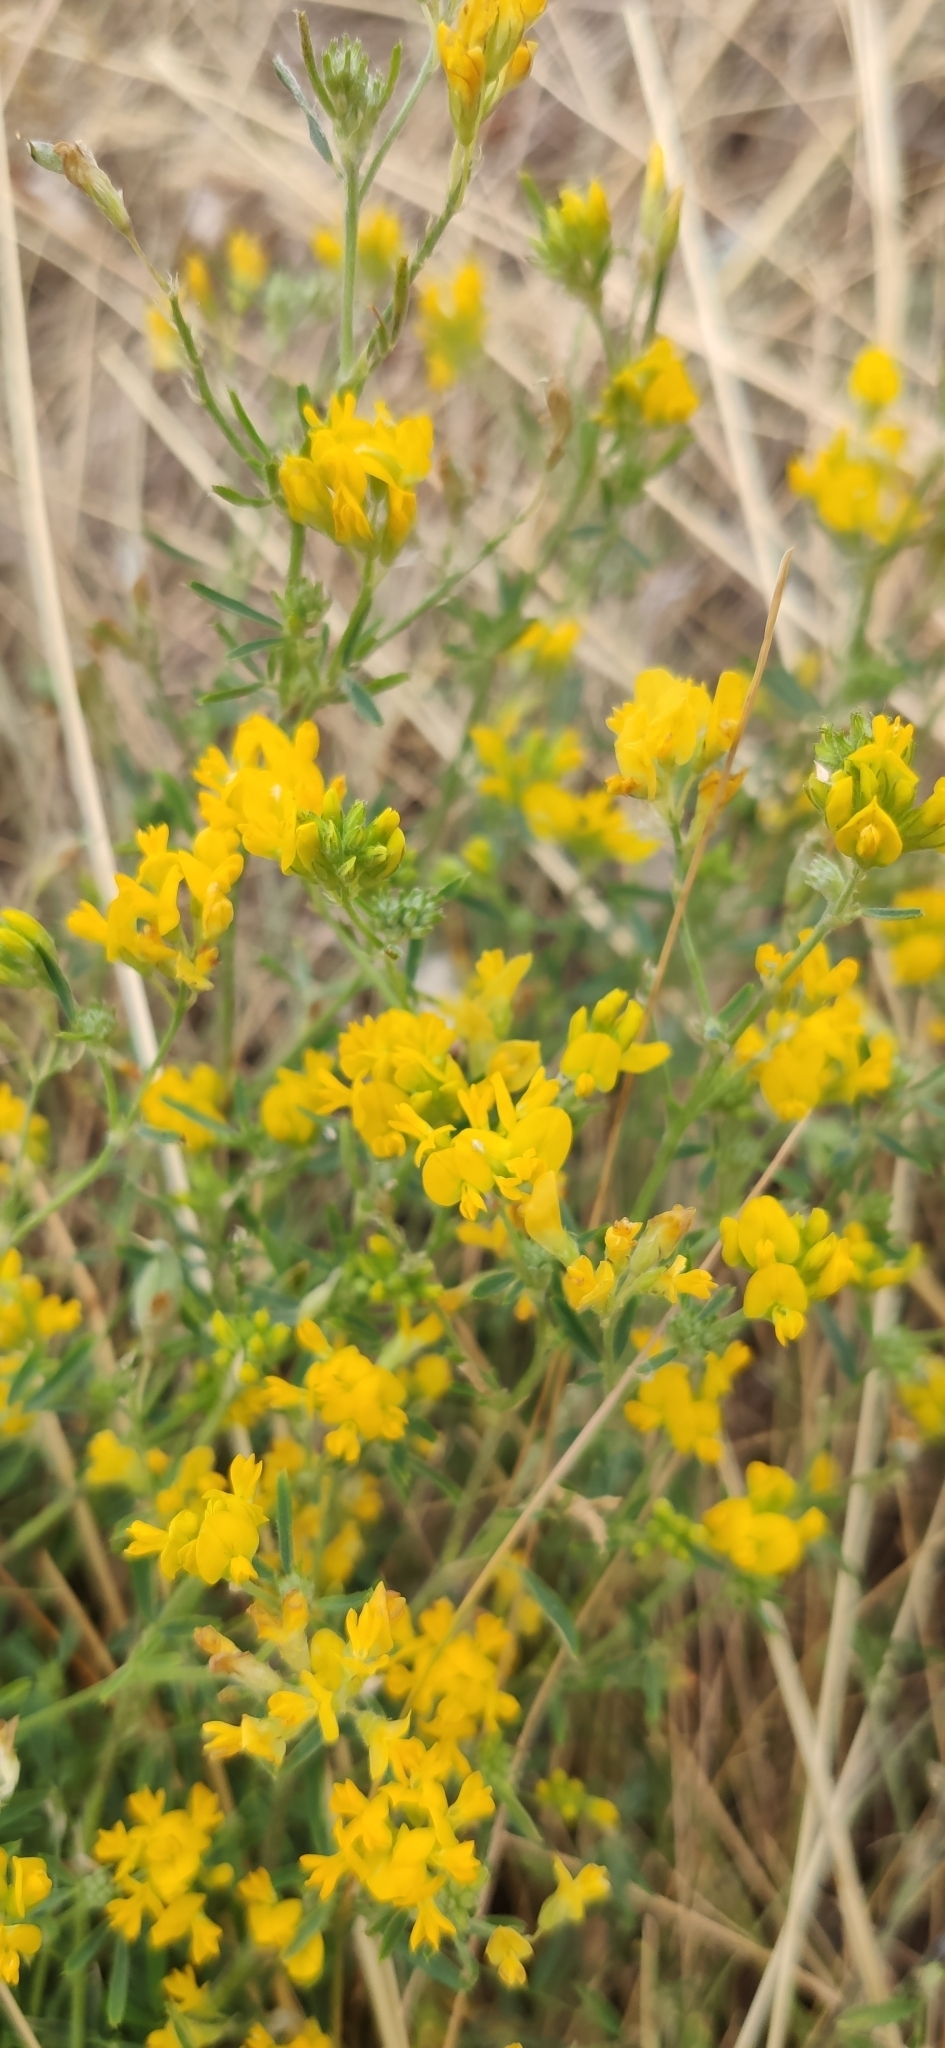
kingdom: Plantae
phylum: Tracheophyta
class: Magnoliopsida
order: Fabales
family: Fabaceae
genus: Medicago
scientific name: Medicago falcata
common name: Sickle medick
